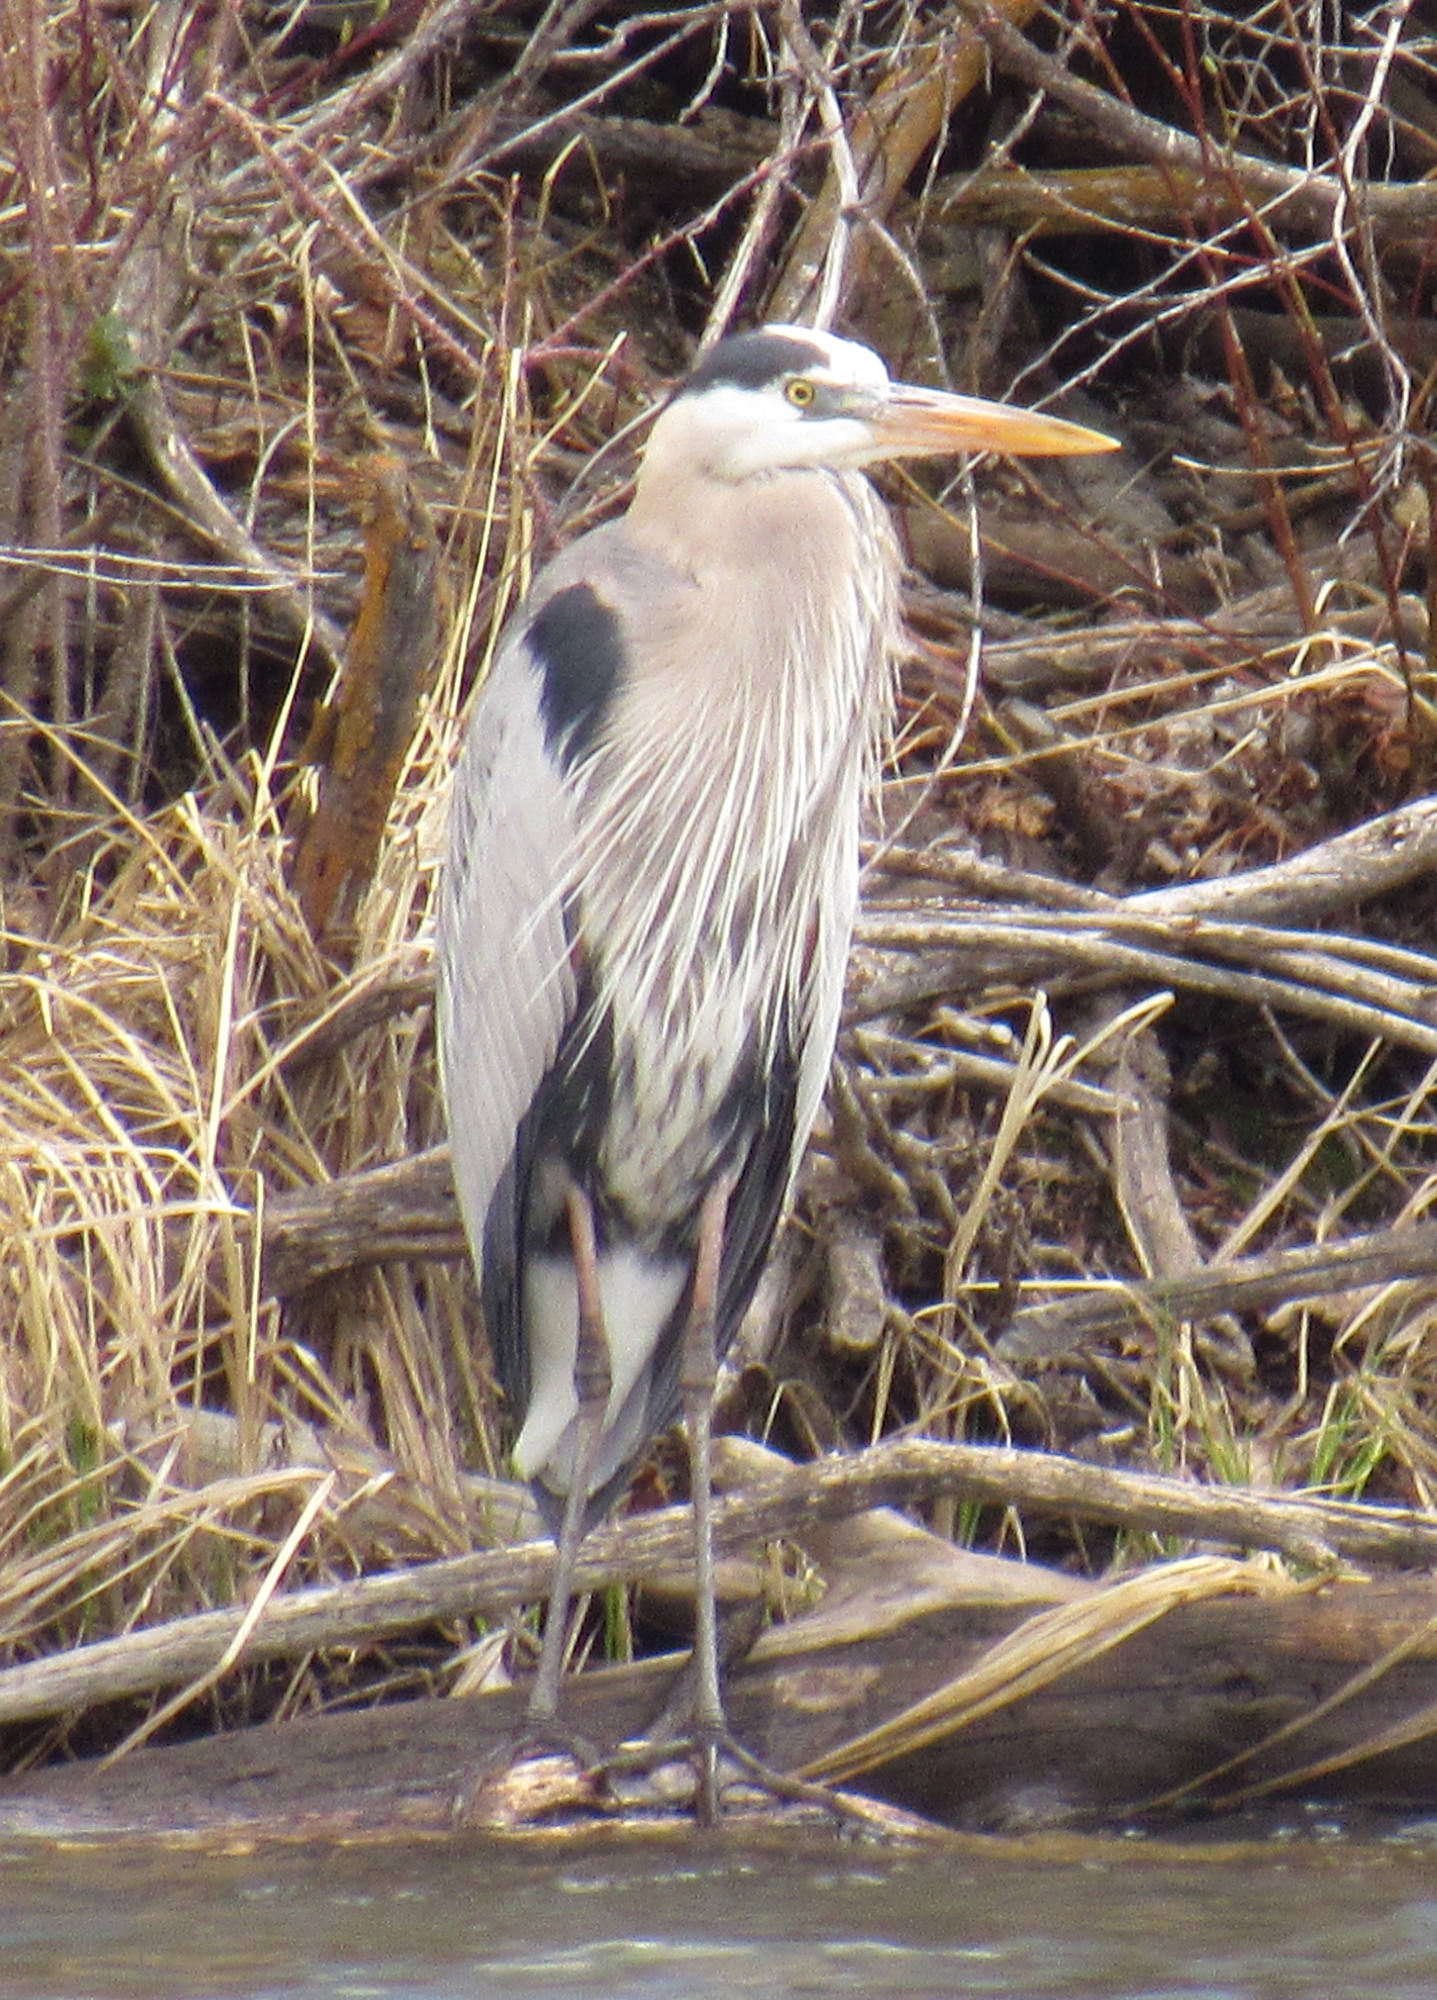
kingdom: Animalia
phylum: Chordata
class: Aves
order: Pelecaniformes
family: Ardeidae
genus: Ardea
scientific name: Ardea herodias
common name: Great blue heron
